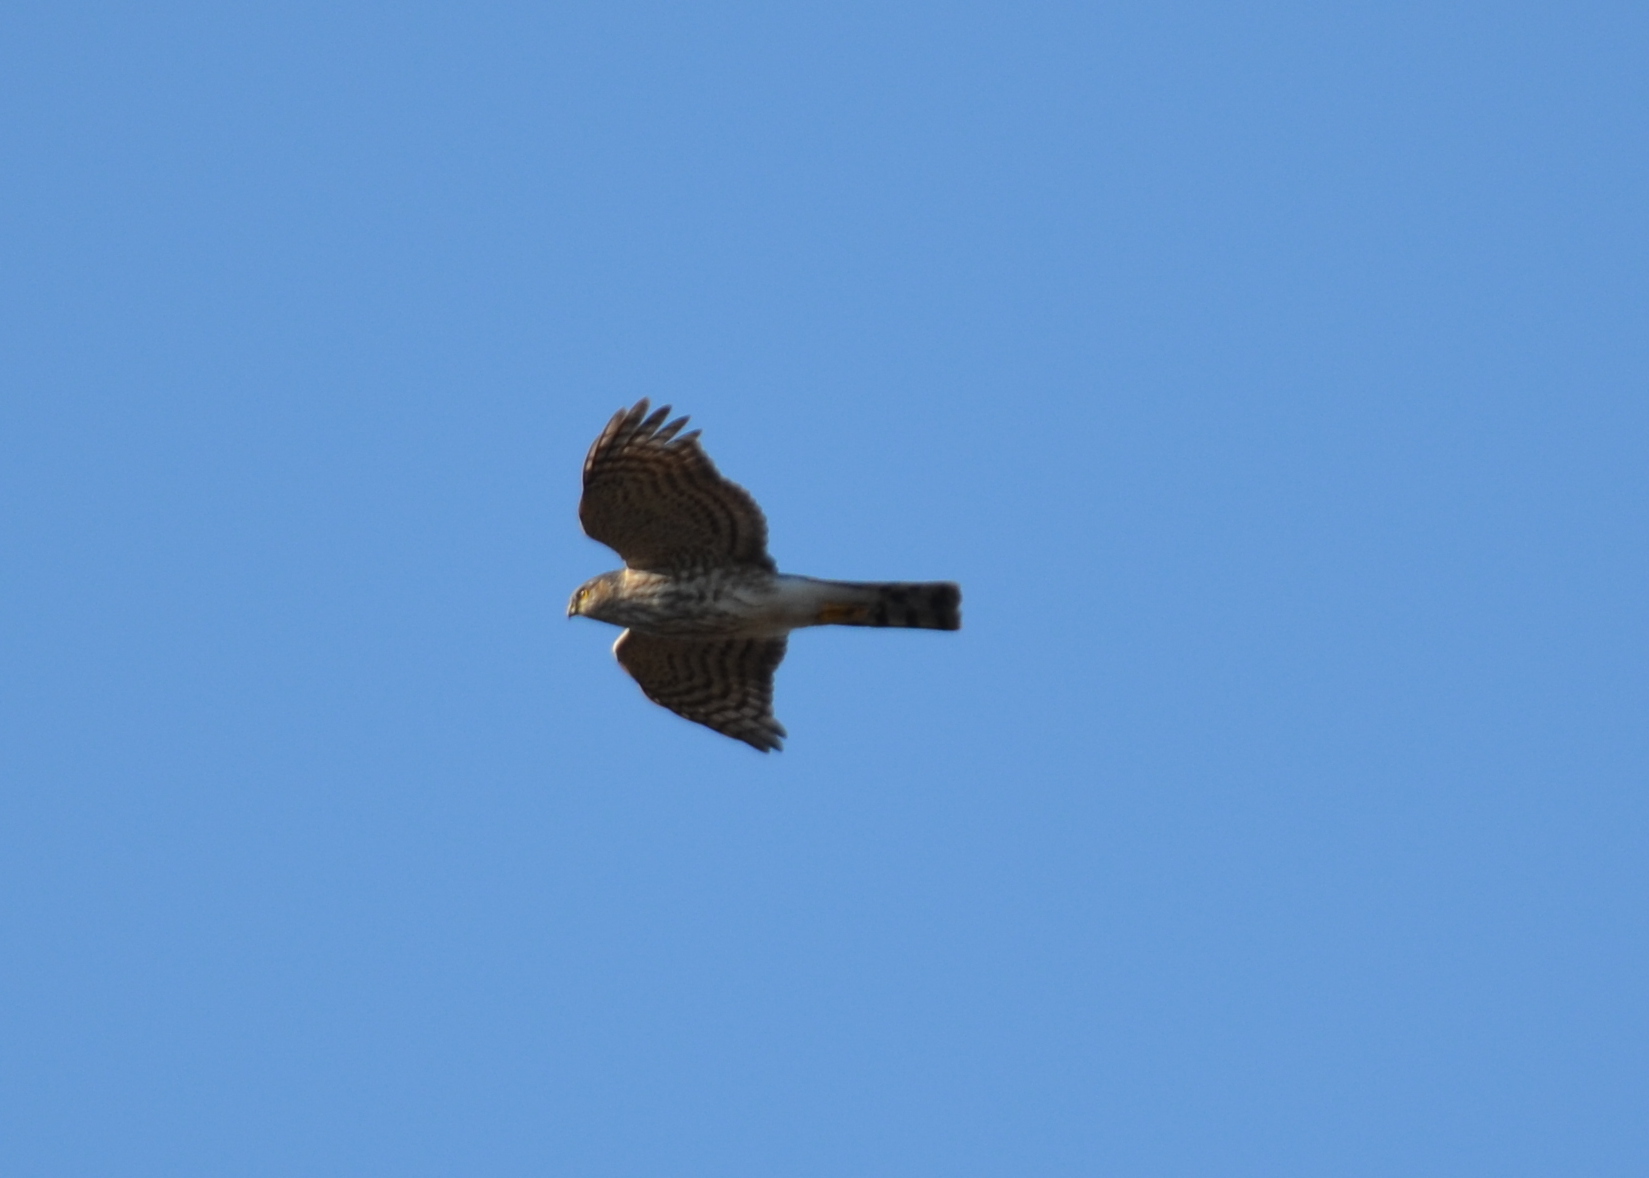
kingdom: Animalia
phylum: Chordata
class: Aves
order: Accipitriformes
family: Accipitridae
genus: Accipiter
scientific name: Accipiter striatus
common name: Sharp-shinned hawk
